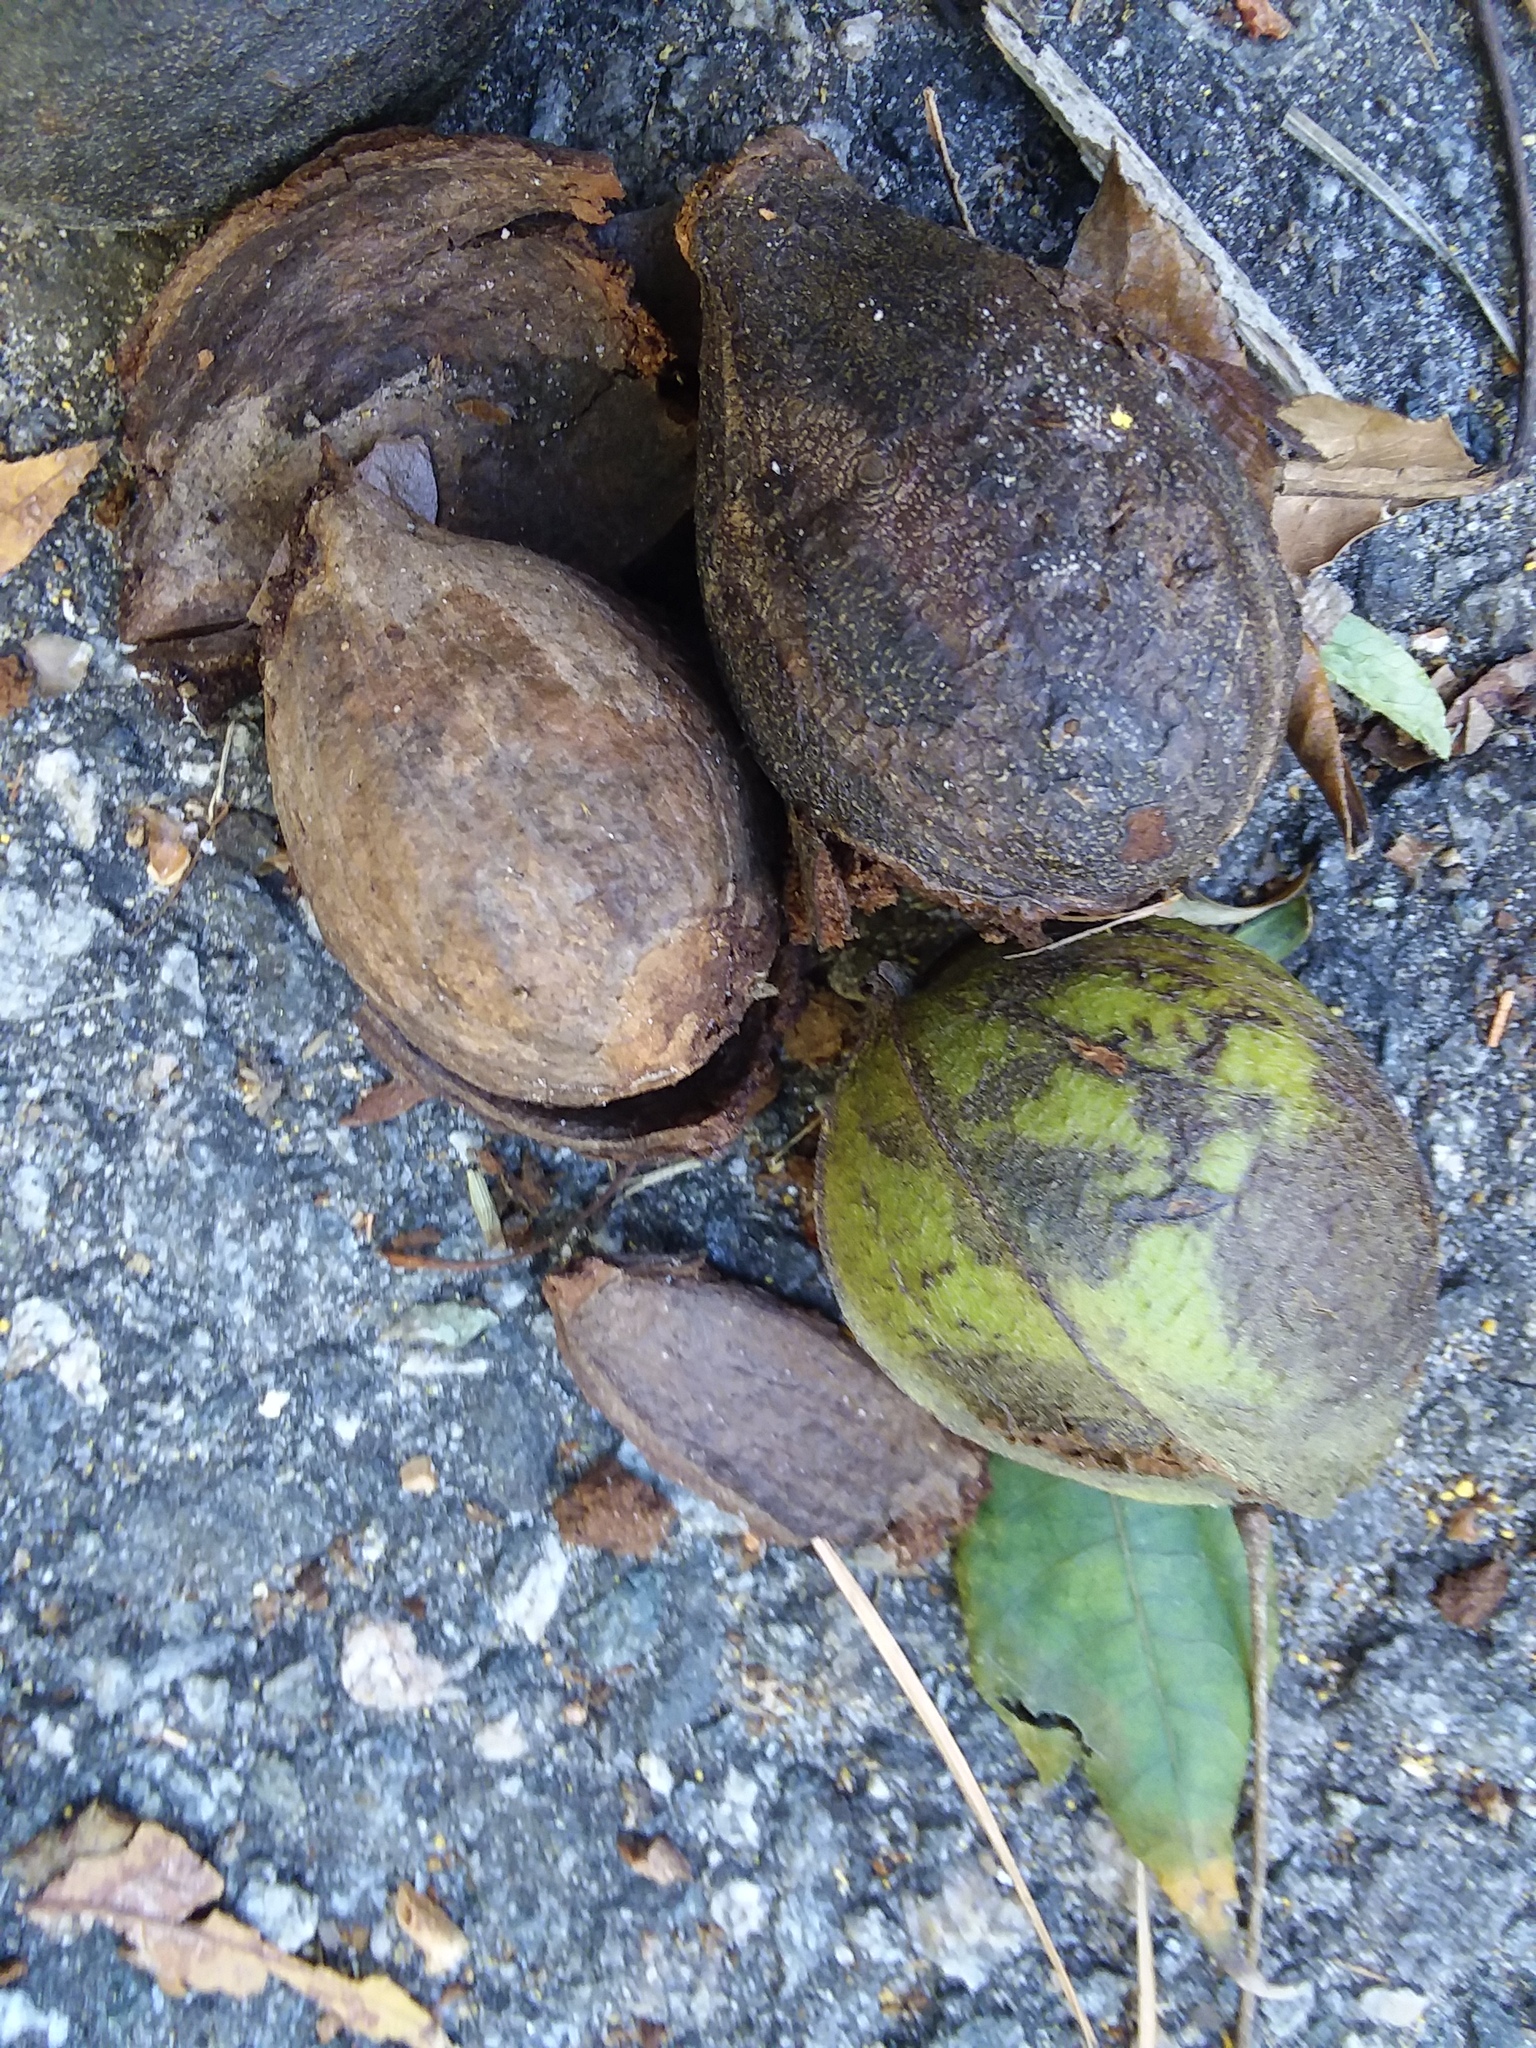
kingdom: Plantae
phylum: Tracheophyta
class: Magnoliopsida
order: Fagales
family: Juglandaceae
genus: Carya
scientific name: Carya glabra
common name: Pignut hickory
